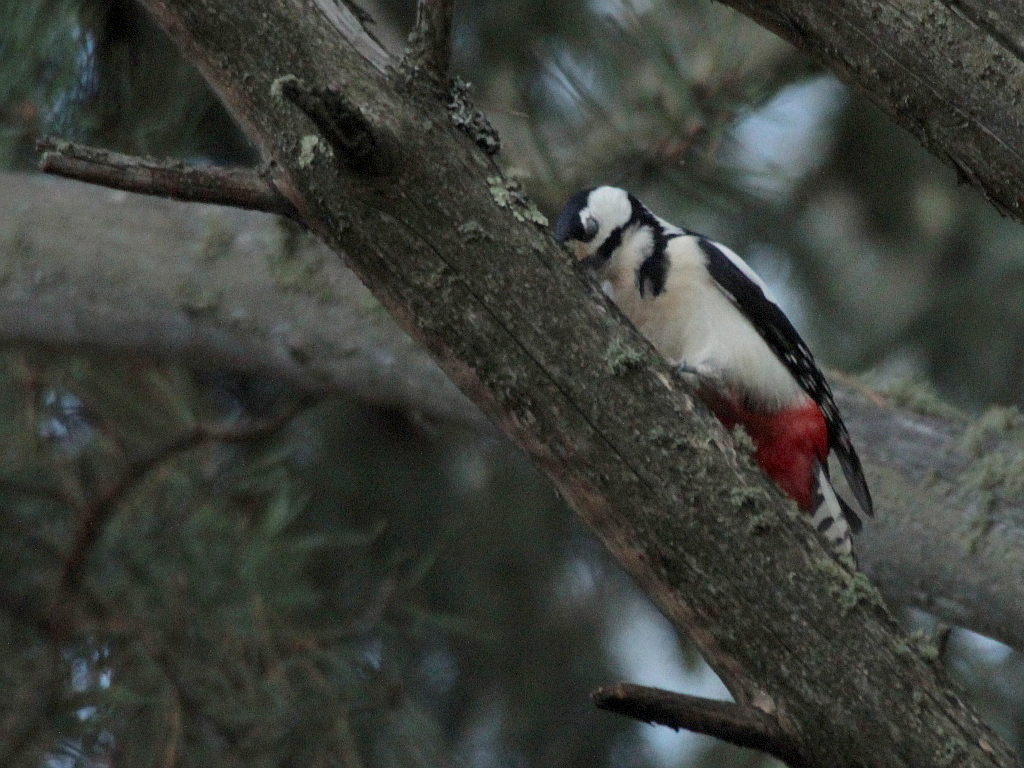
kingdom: Animalia
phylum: Chordata
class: Aves
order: Piciformes
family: Picidae
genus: Dendrocopos
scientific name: Dendrocopos major
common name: Great spotted woodpecker
